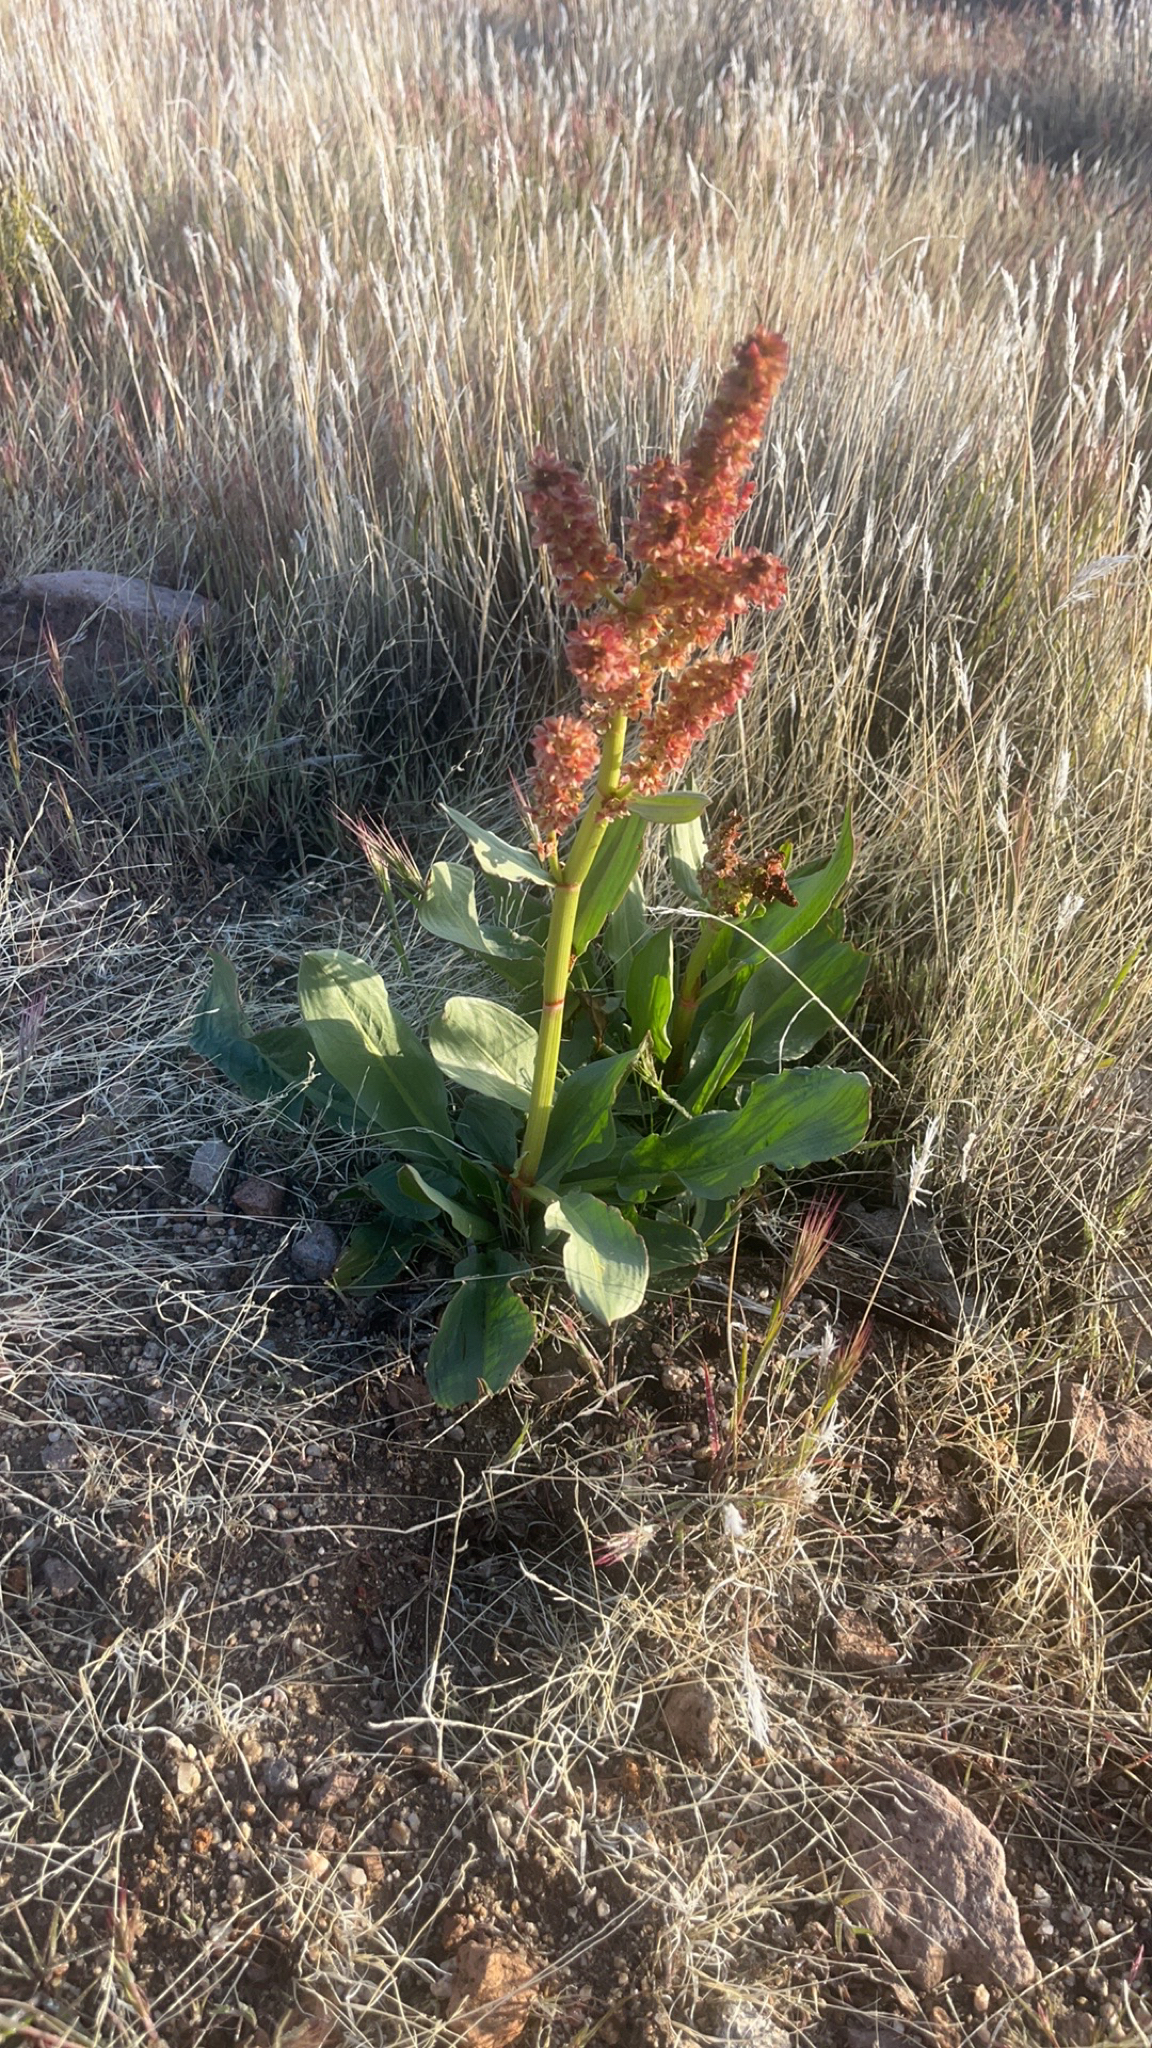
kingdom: Plantae
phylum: Tracheophyta
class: Magnoliopsida
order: Caryophyllales
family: Polygonaceae
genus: Rumex
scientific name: Rumex hymenosepalus
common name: Ganagra
